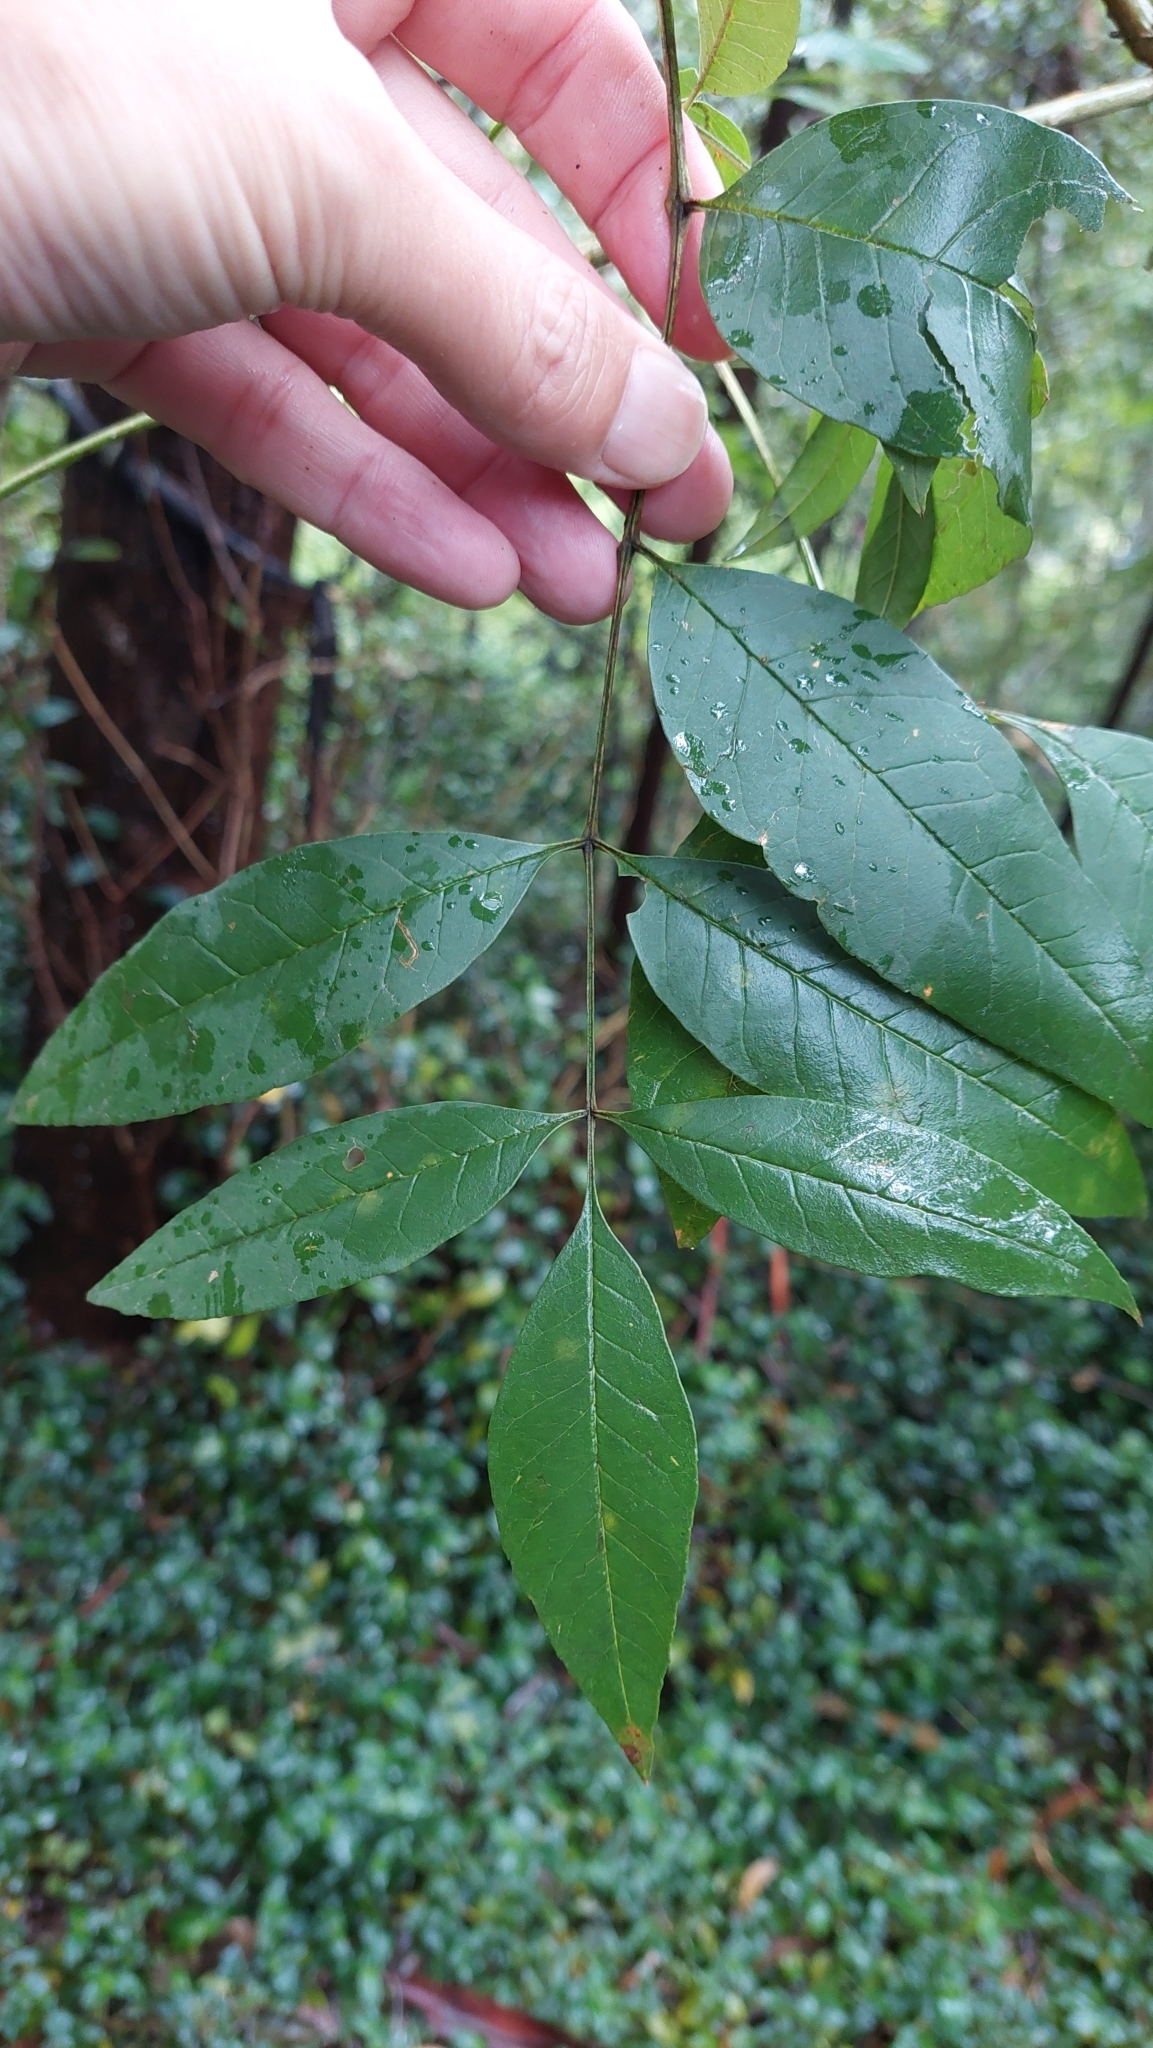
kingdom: Plantae
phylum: Tracheophyta
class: Magnoliopsida
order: Lamiales
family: Oleaceae
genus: Fraxinus
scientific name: Fraxinus uhdei
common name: Shamel ash
